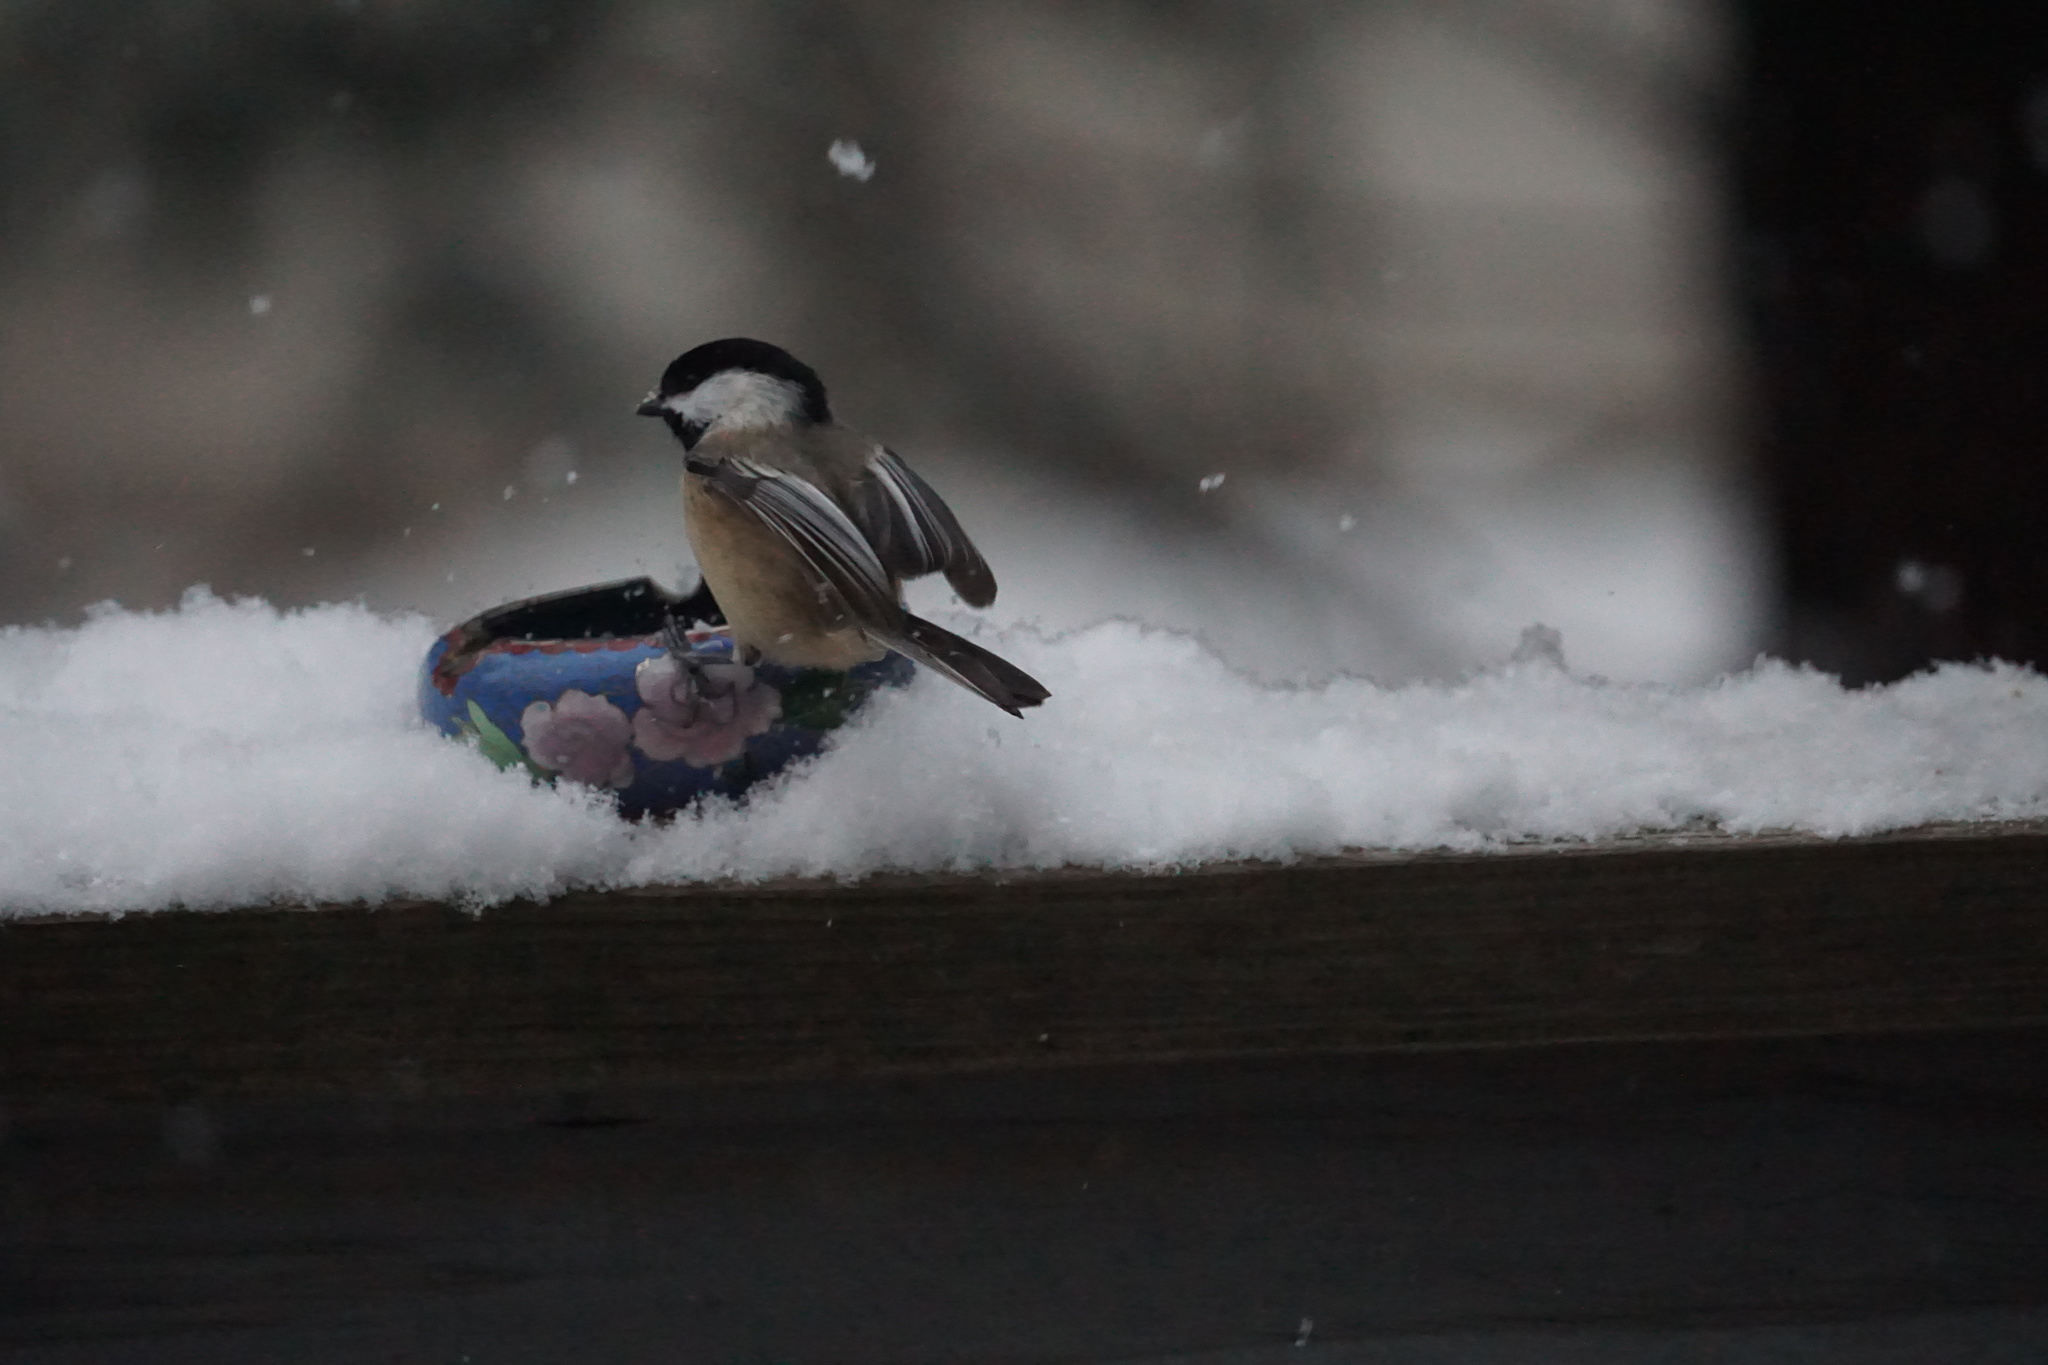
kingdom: Animalia
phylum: Chordata
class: Aves
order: Passeriformes
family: Paridae
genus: Poecile
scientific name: Poecile atricapillus
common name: Black-capped chickadee
